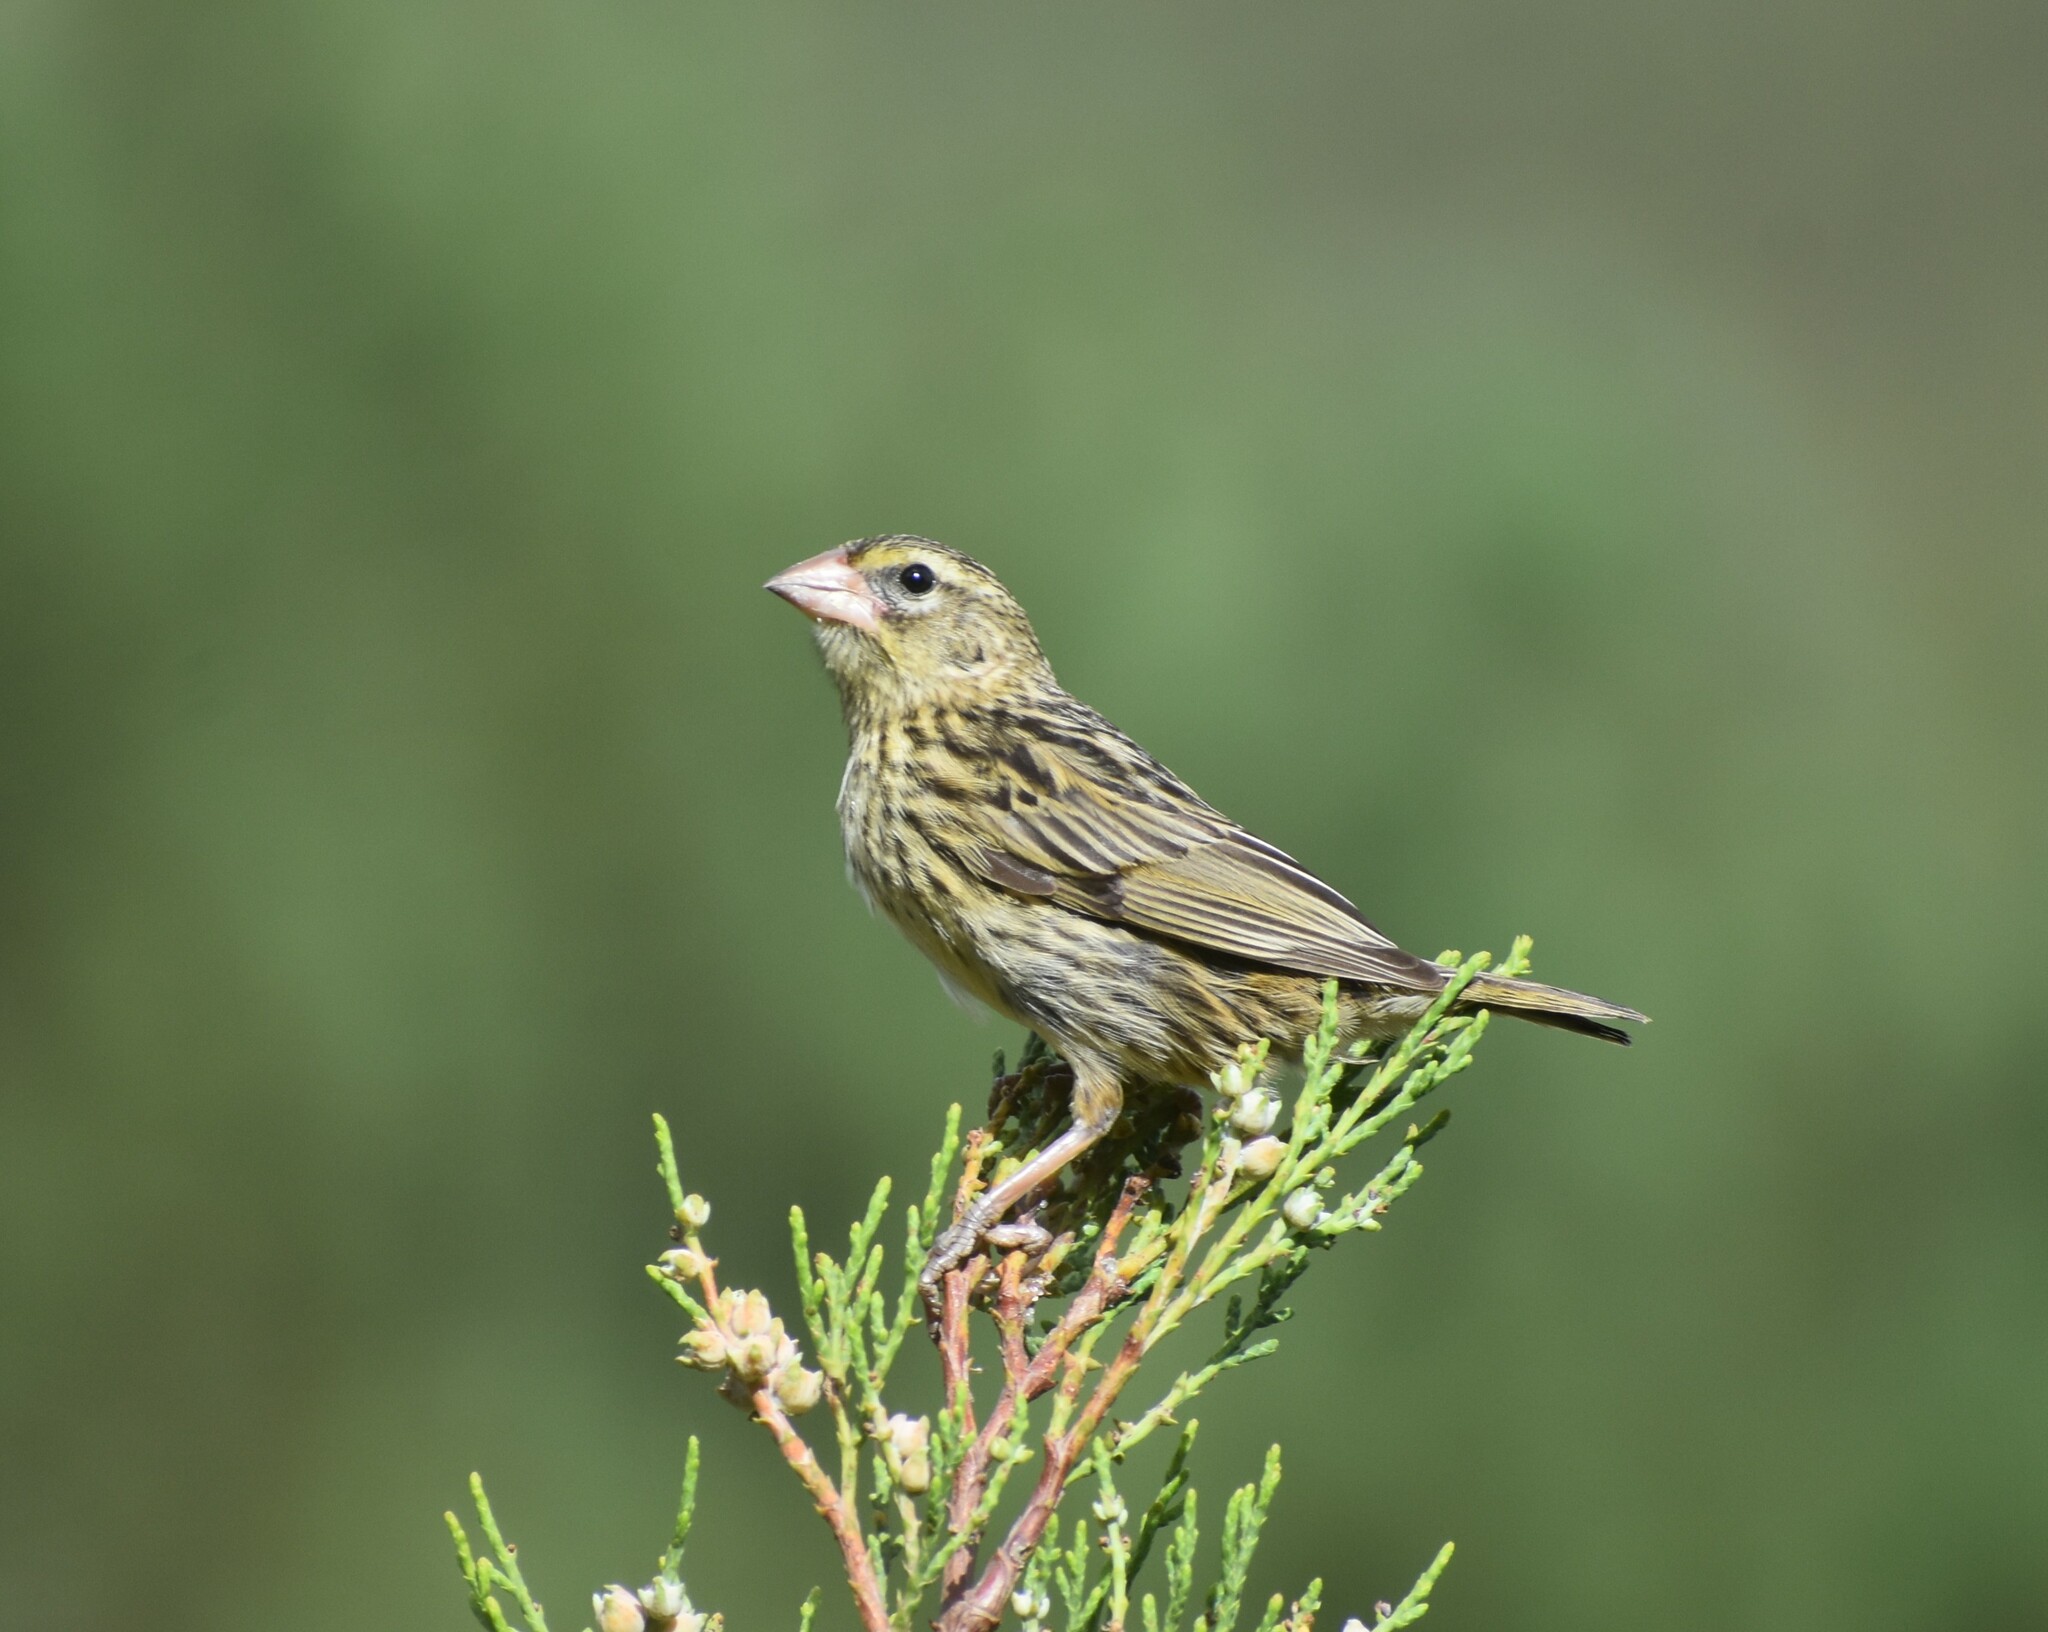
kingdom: Animalia
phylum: Chordata
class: Aves
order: Passeriformes
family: Ploceidae
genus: Euplectes
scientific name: Euplectes capensis
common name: Yellow bishop
